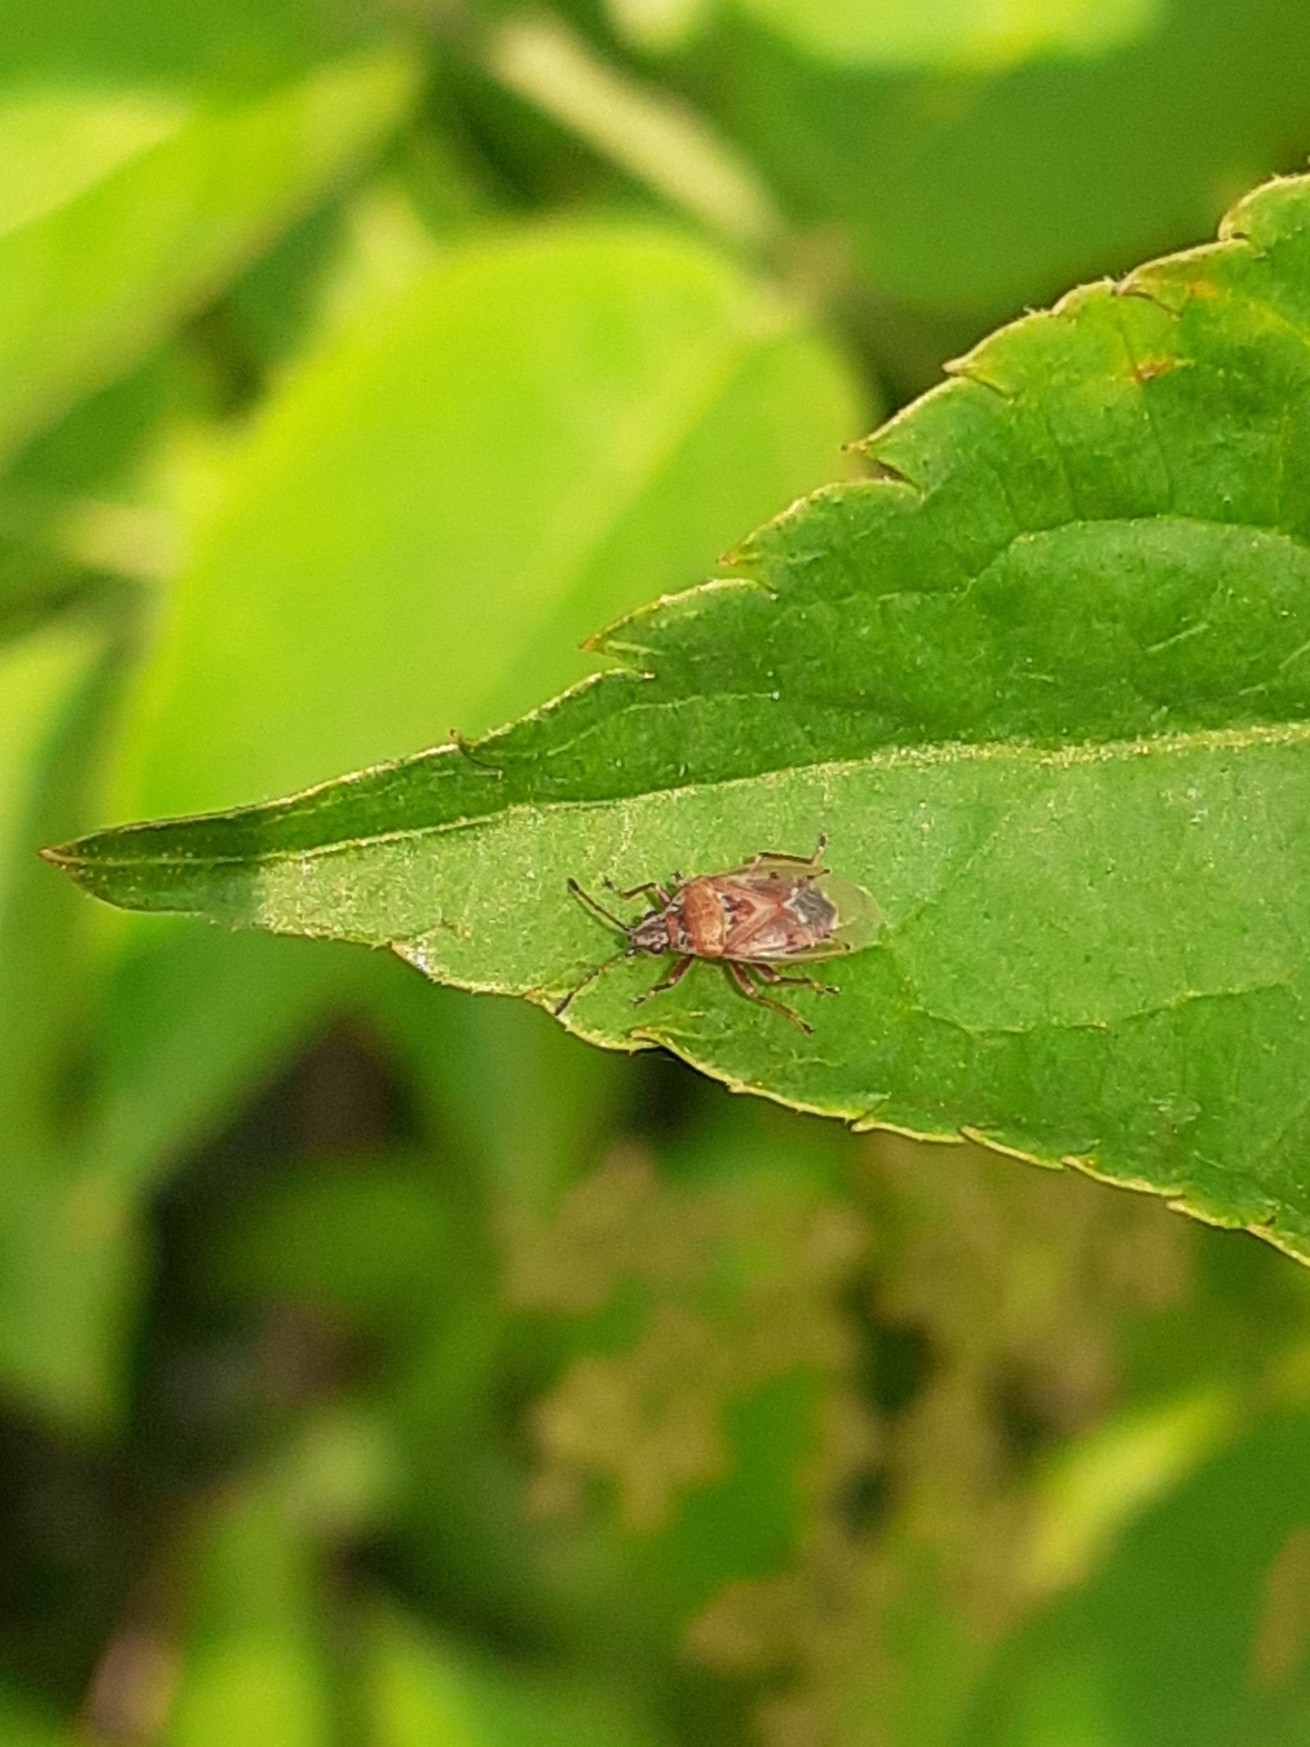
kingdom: Animalia
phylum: Arthropoda
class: Insecta
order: Hemiptera
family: Lygaeidae
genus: Kleidocerys
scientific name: Kleidocerys resedae
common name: Birch catkin bug
